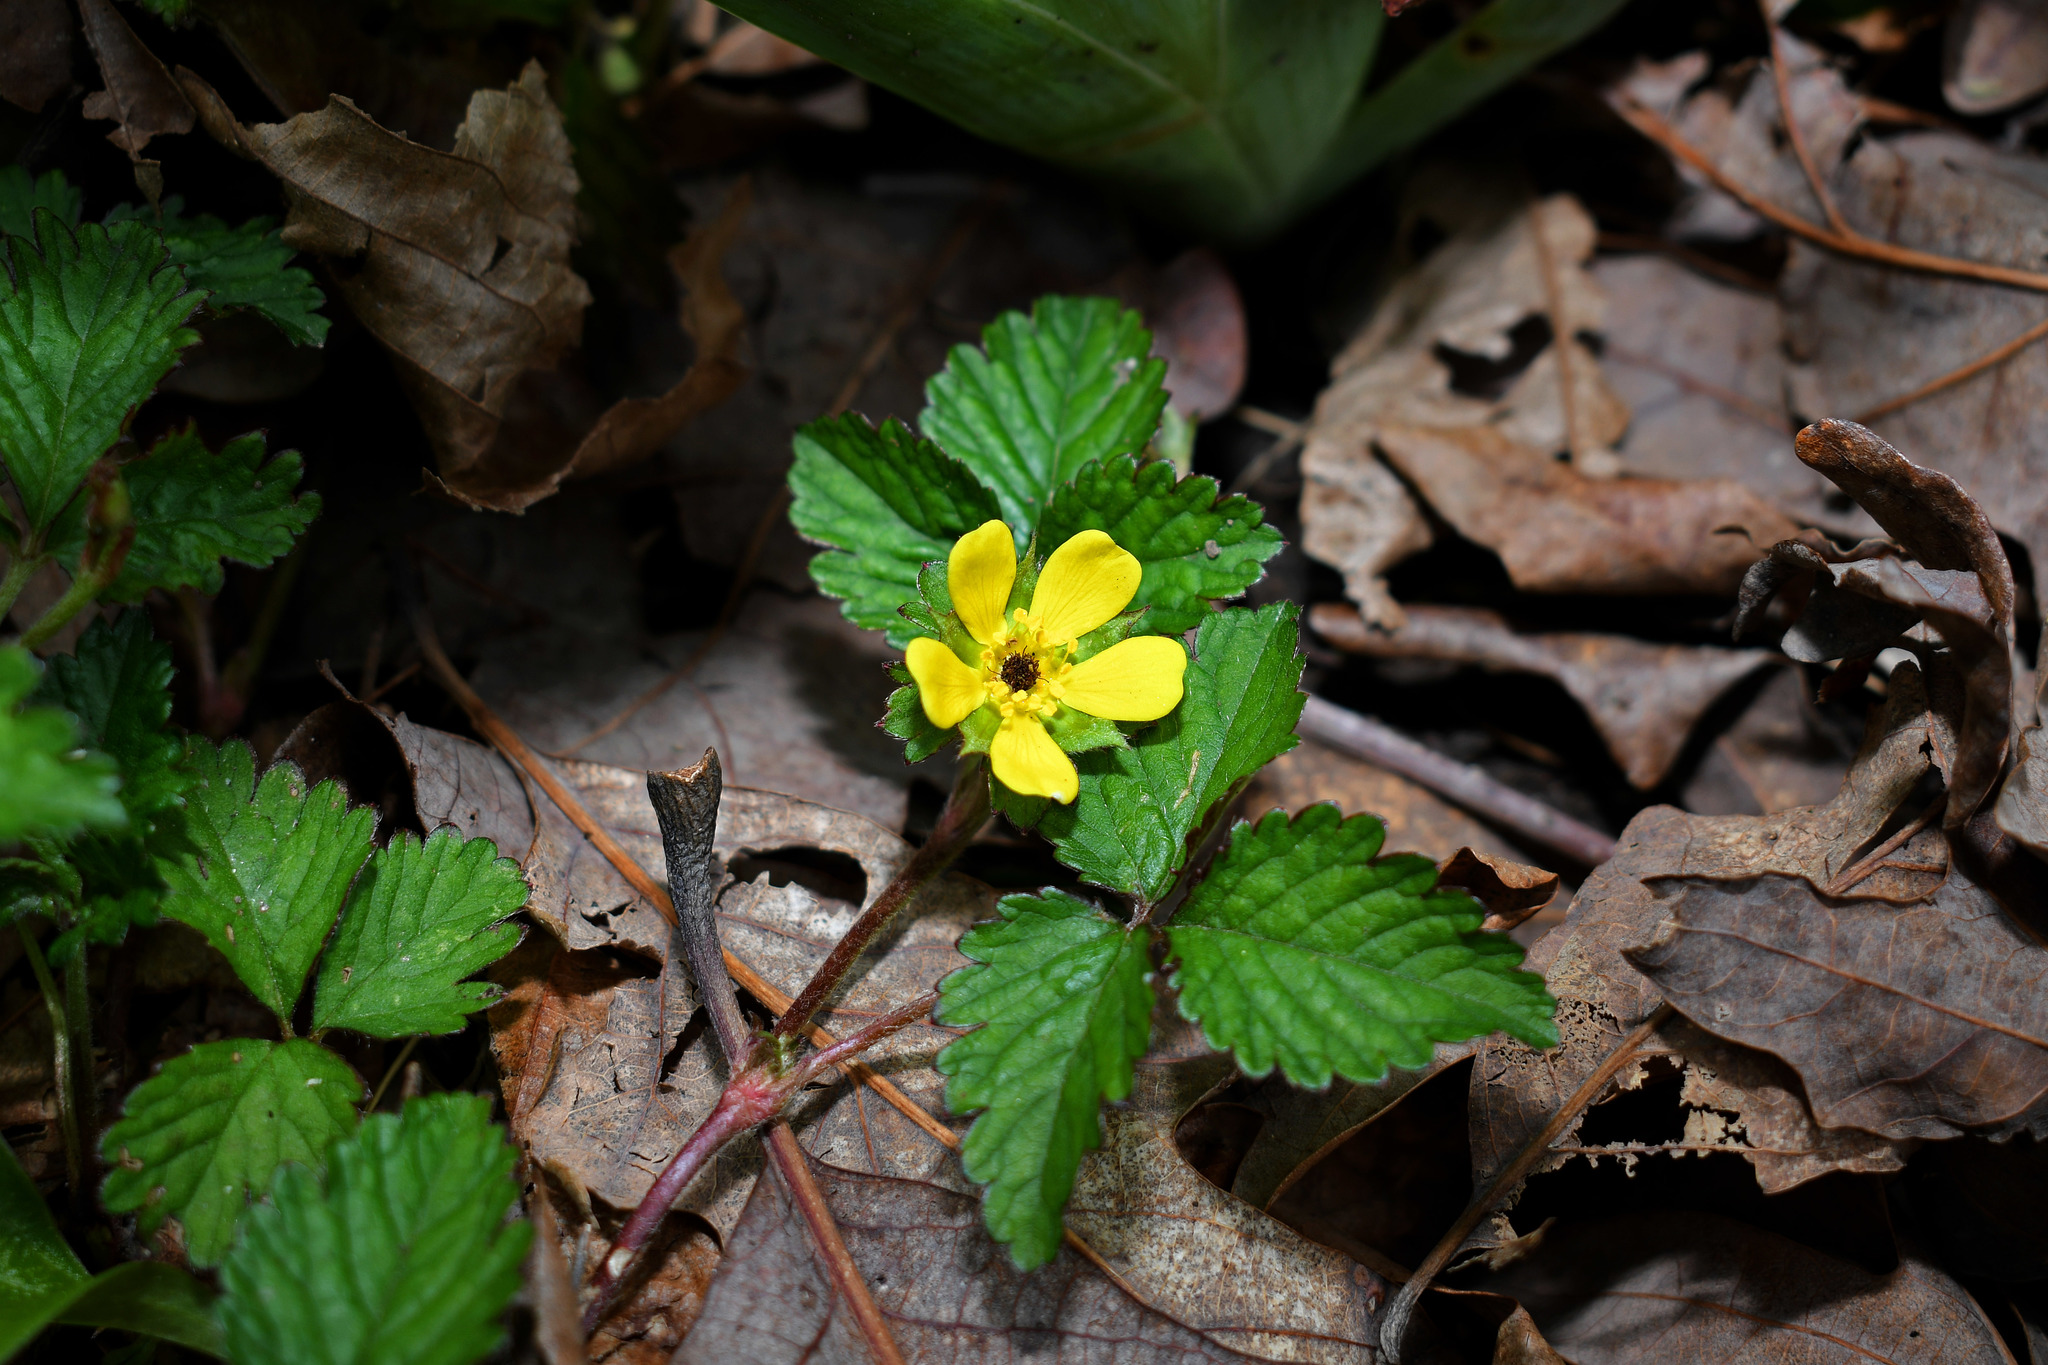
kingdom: Plantae
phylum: Tracheophyta
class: Magnoliopsida
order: Rosales
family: Rosaceae
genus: Potentilla
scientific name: Potentilla indica
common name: Yellow-flowered strawberry
